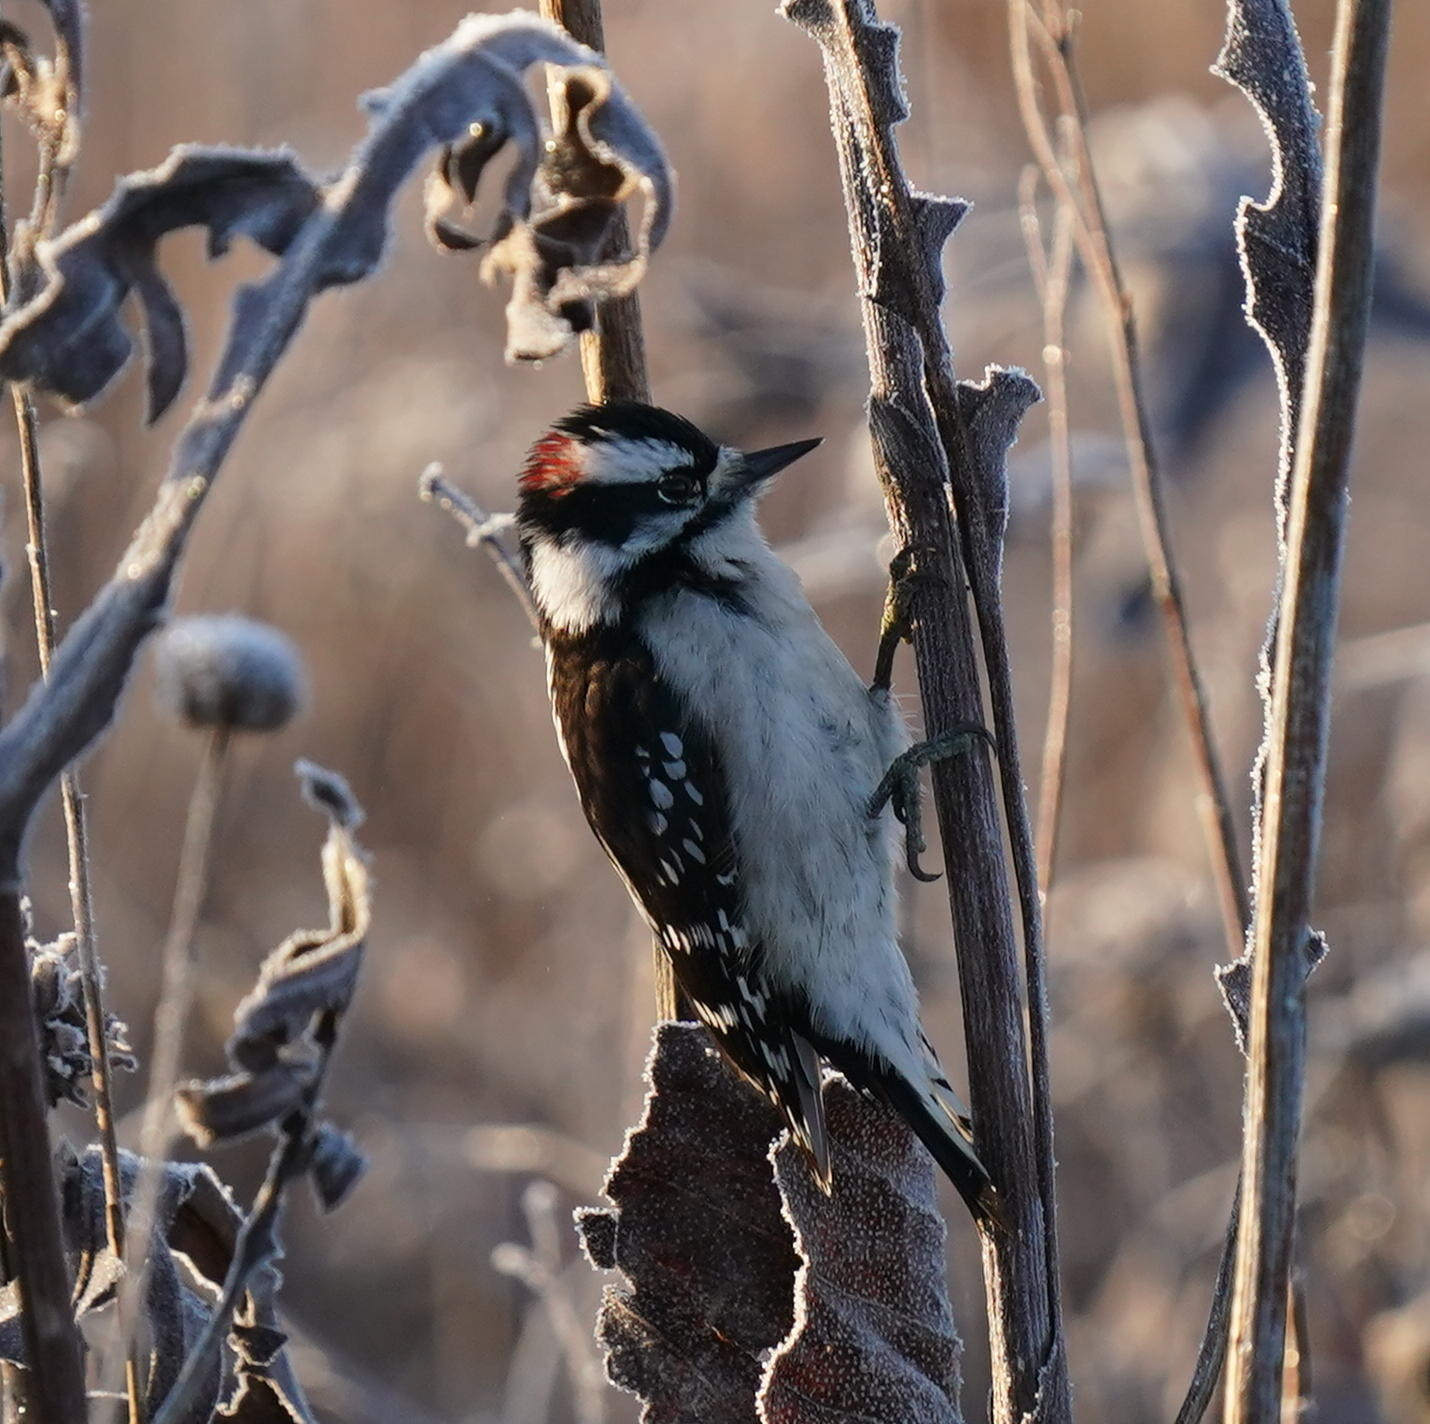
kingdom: Animalia
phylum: Chordata
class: Aves
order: Piciformes
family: Picidae
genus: Dryobates
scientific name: Dryobates pubescens
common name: Downy woodpecker
